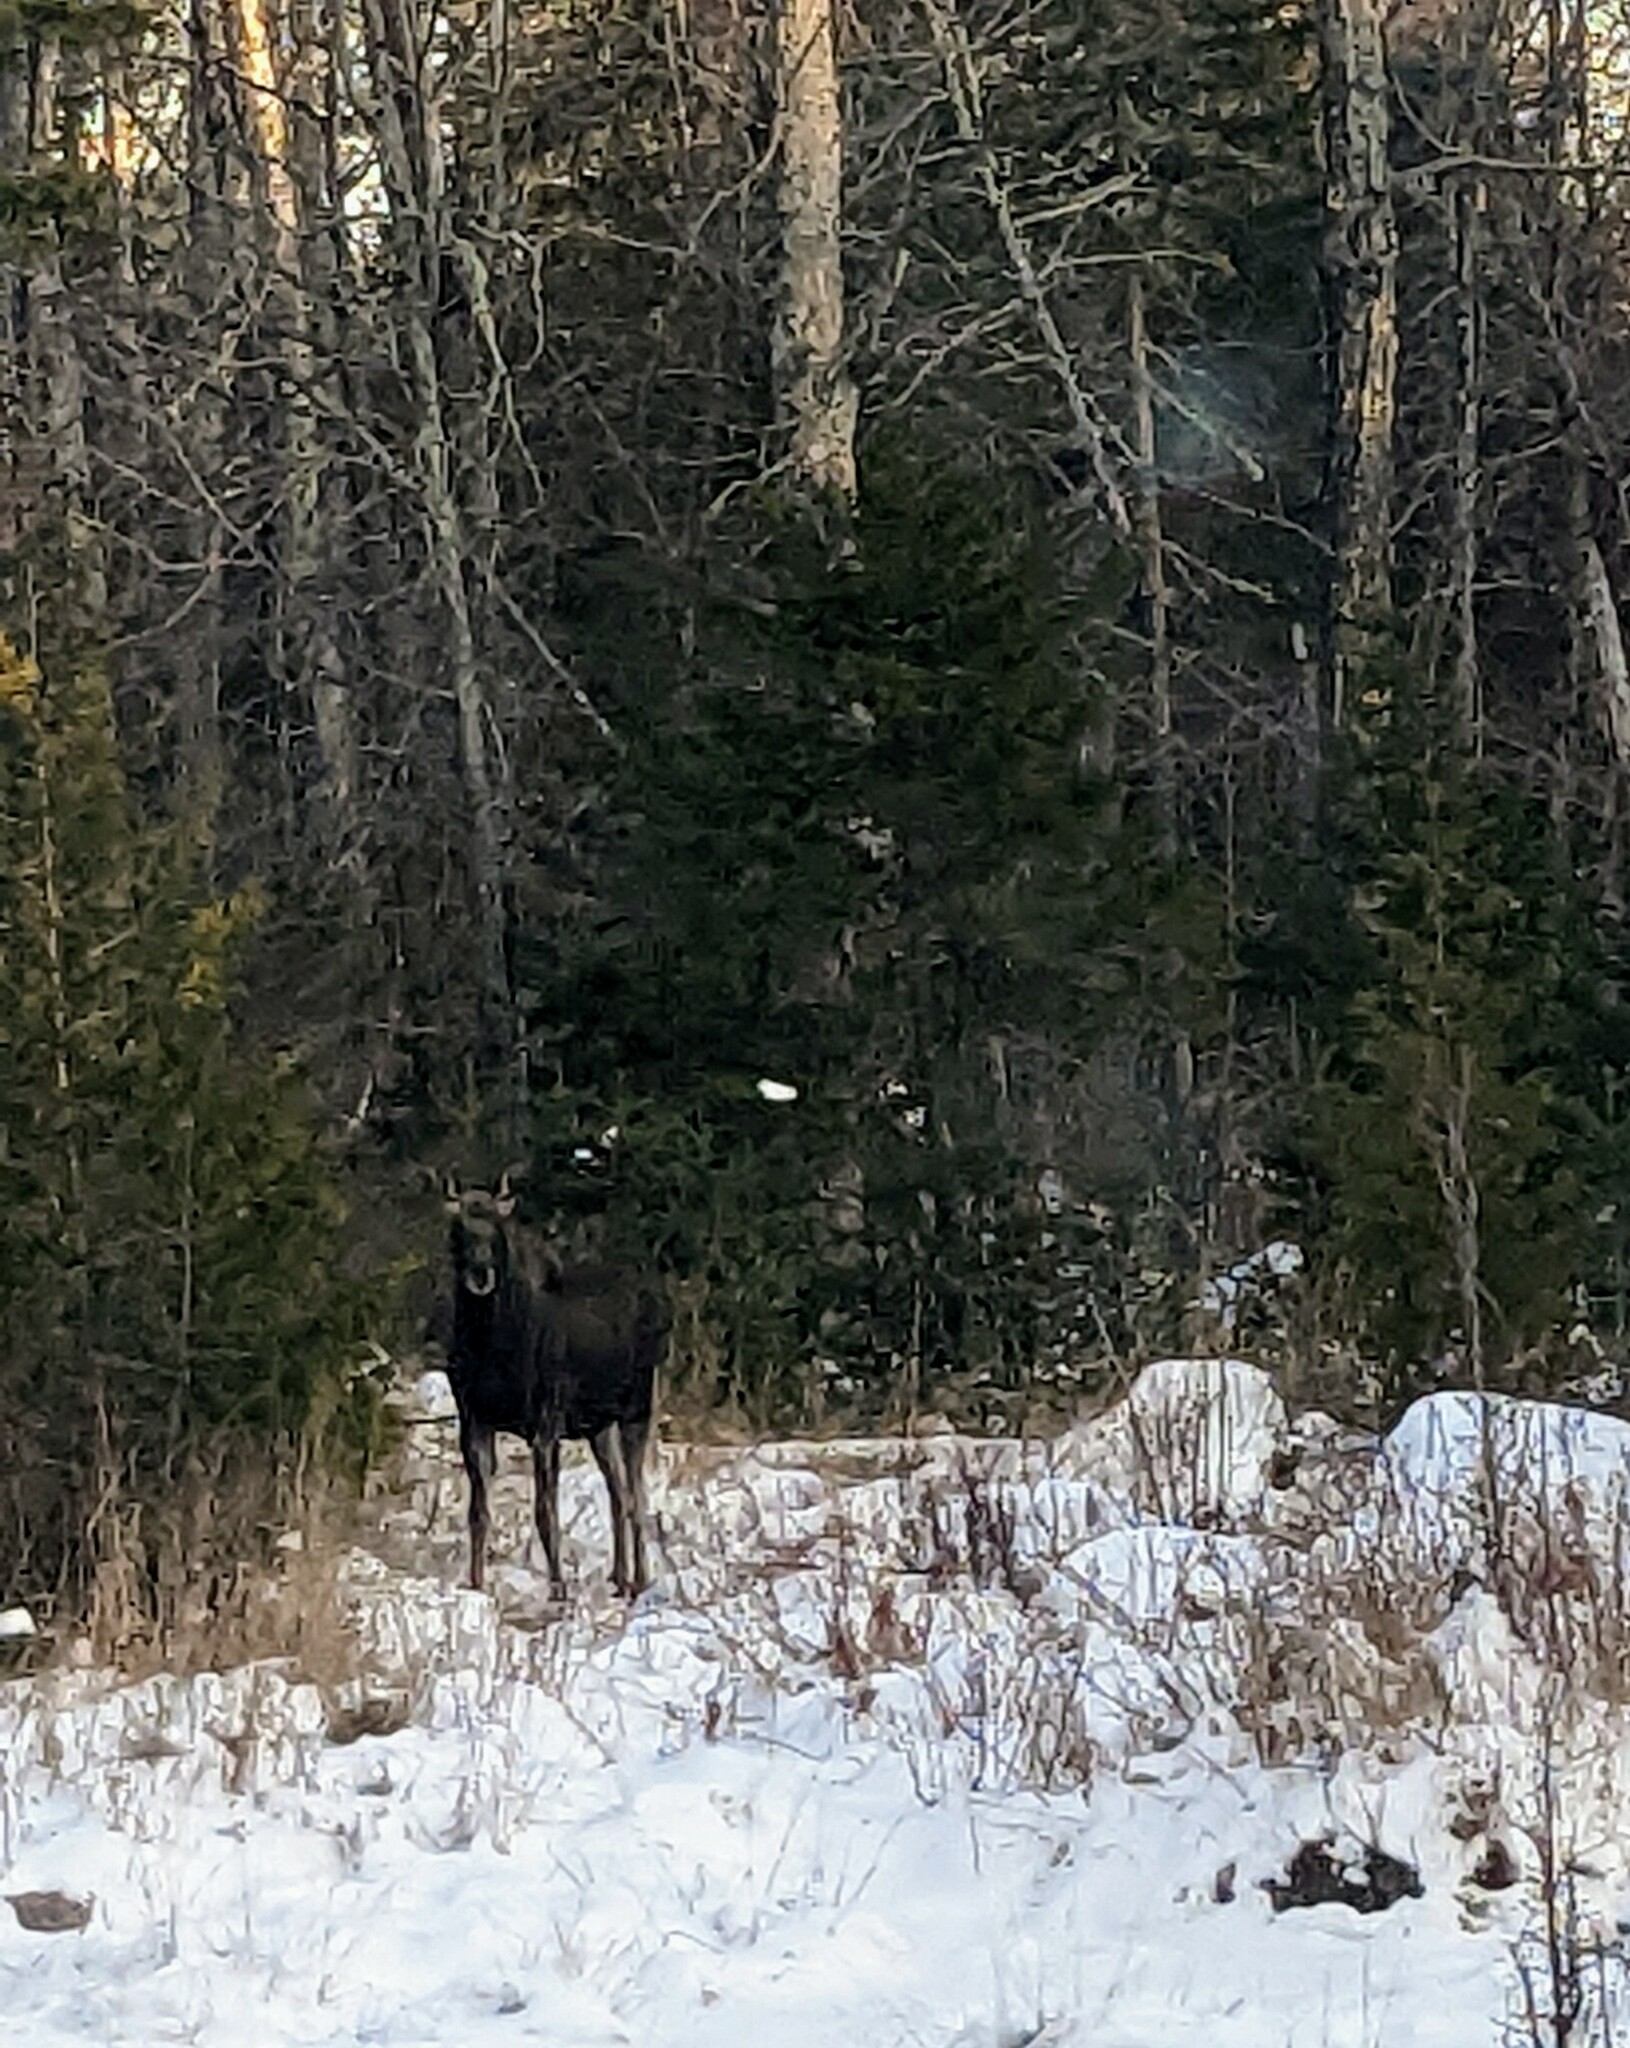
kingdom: Animalia
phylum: Chordata
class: Mammalia
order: Artiodactyla
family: Cervidae
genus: Alces
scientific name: Alces alces
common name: Moose
